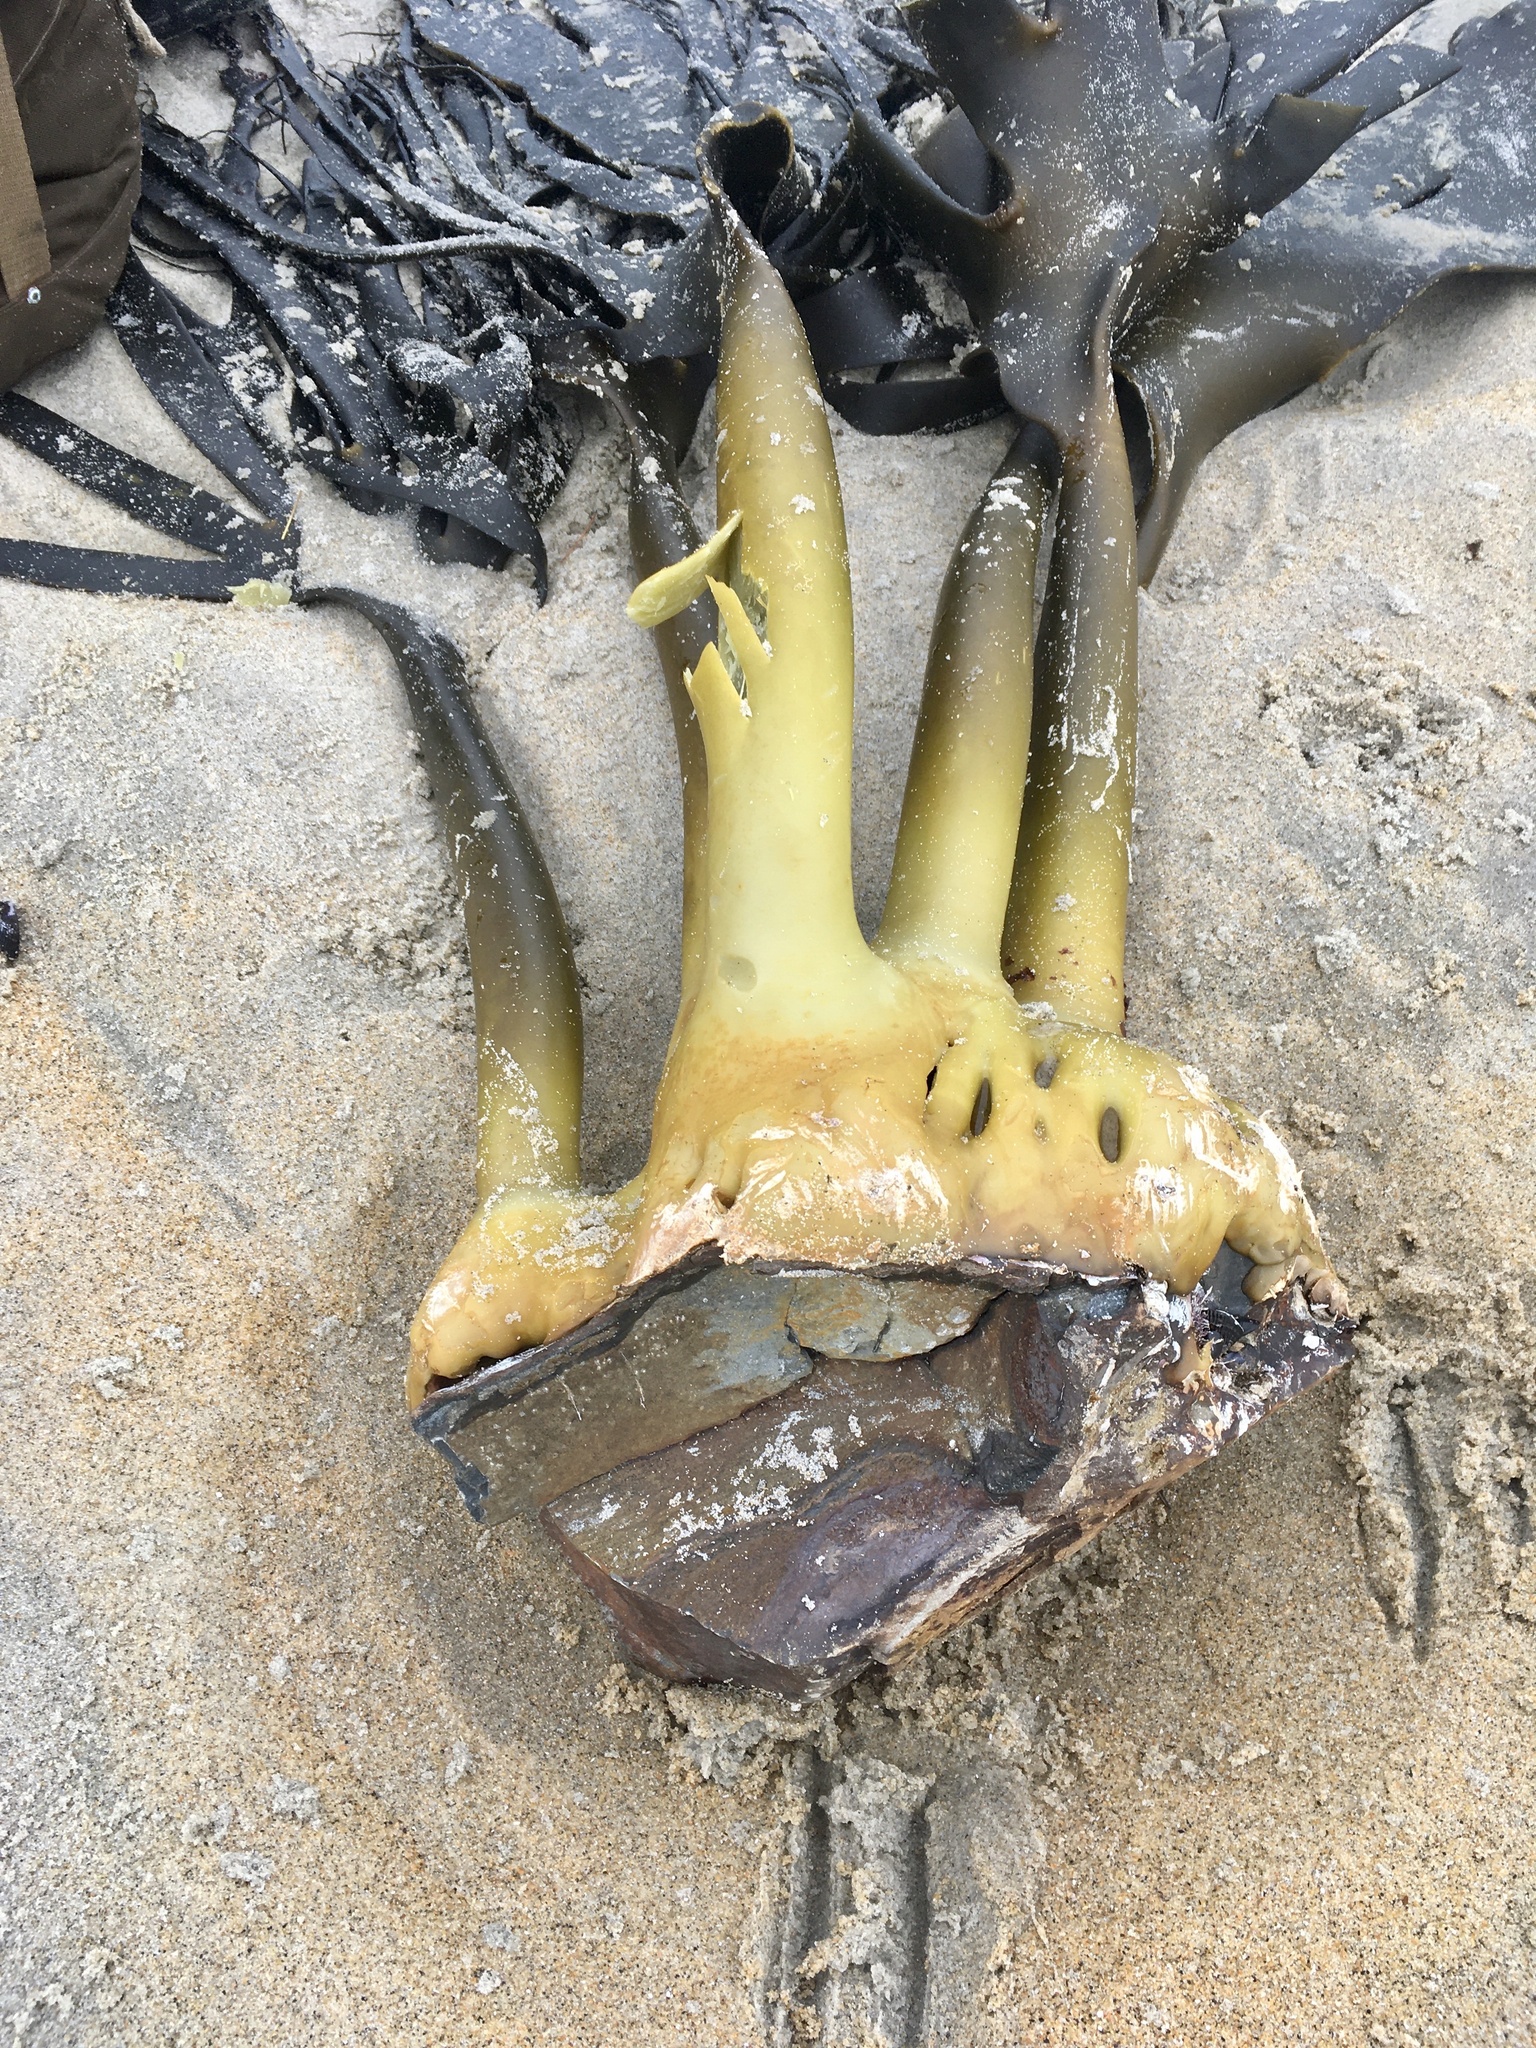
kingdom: Chromista
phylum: Ochrophyta
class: Phaeophyceae
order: Fucales
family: Durvillaeaceae
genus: Durvillaea
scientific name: Durvillaea antarctica
